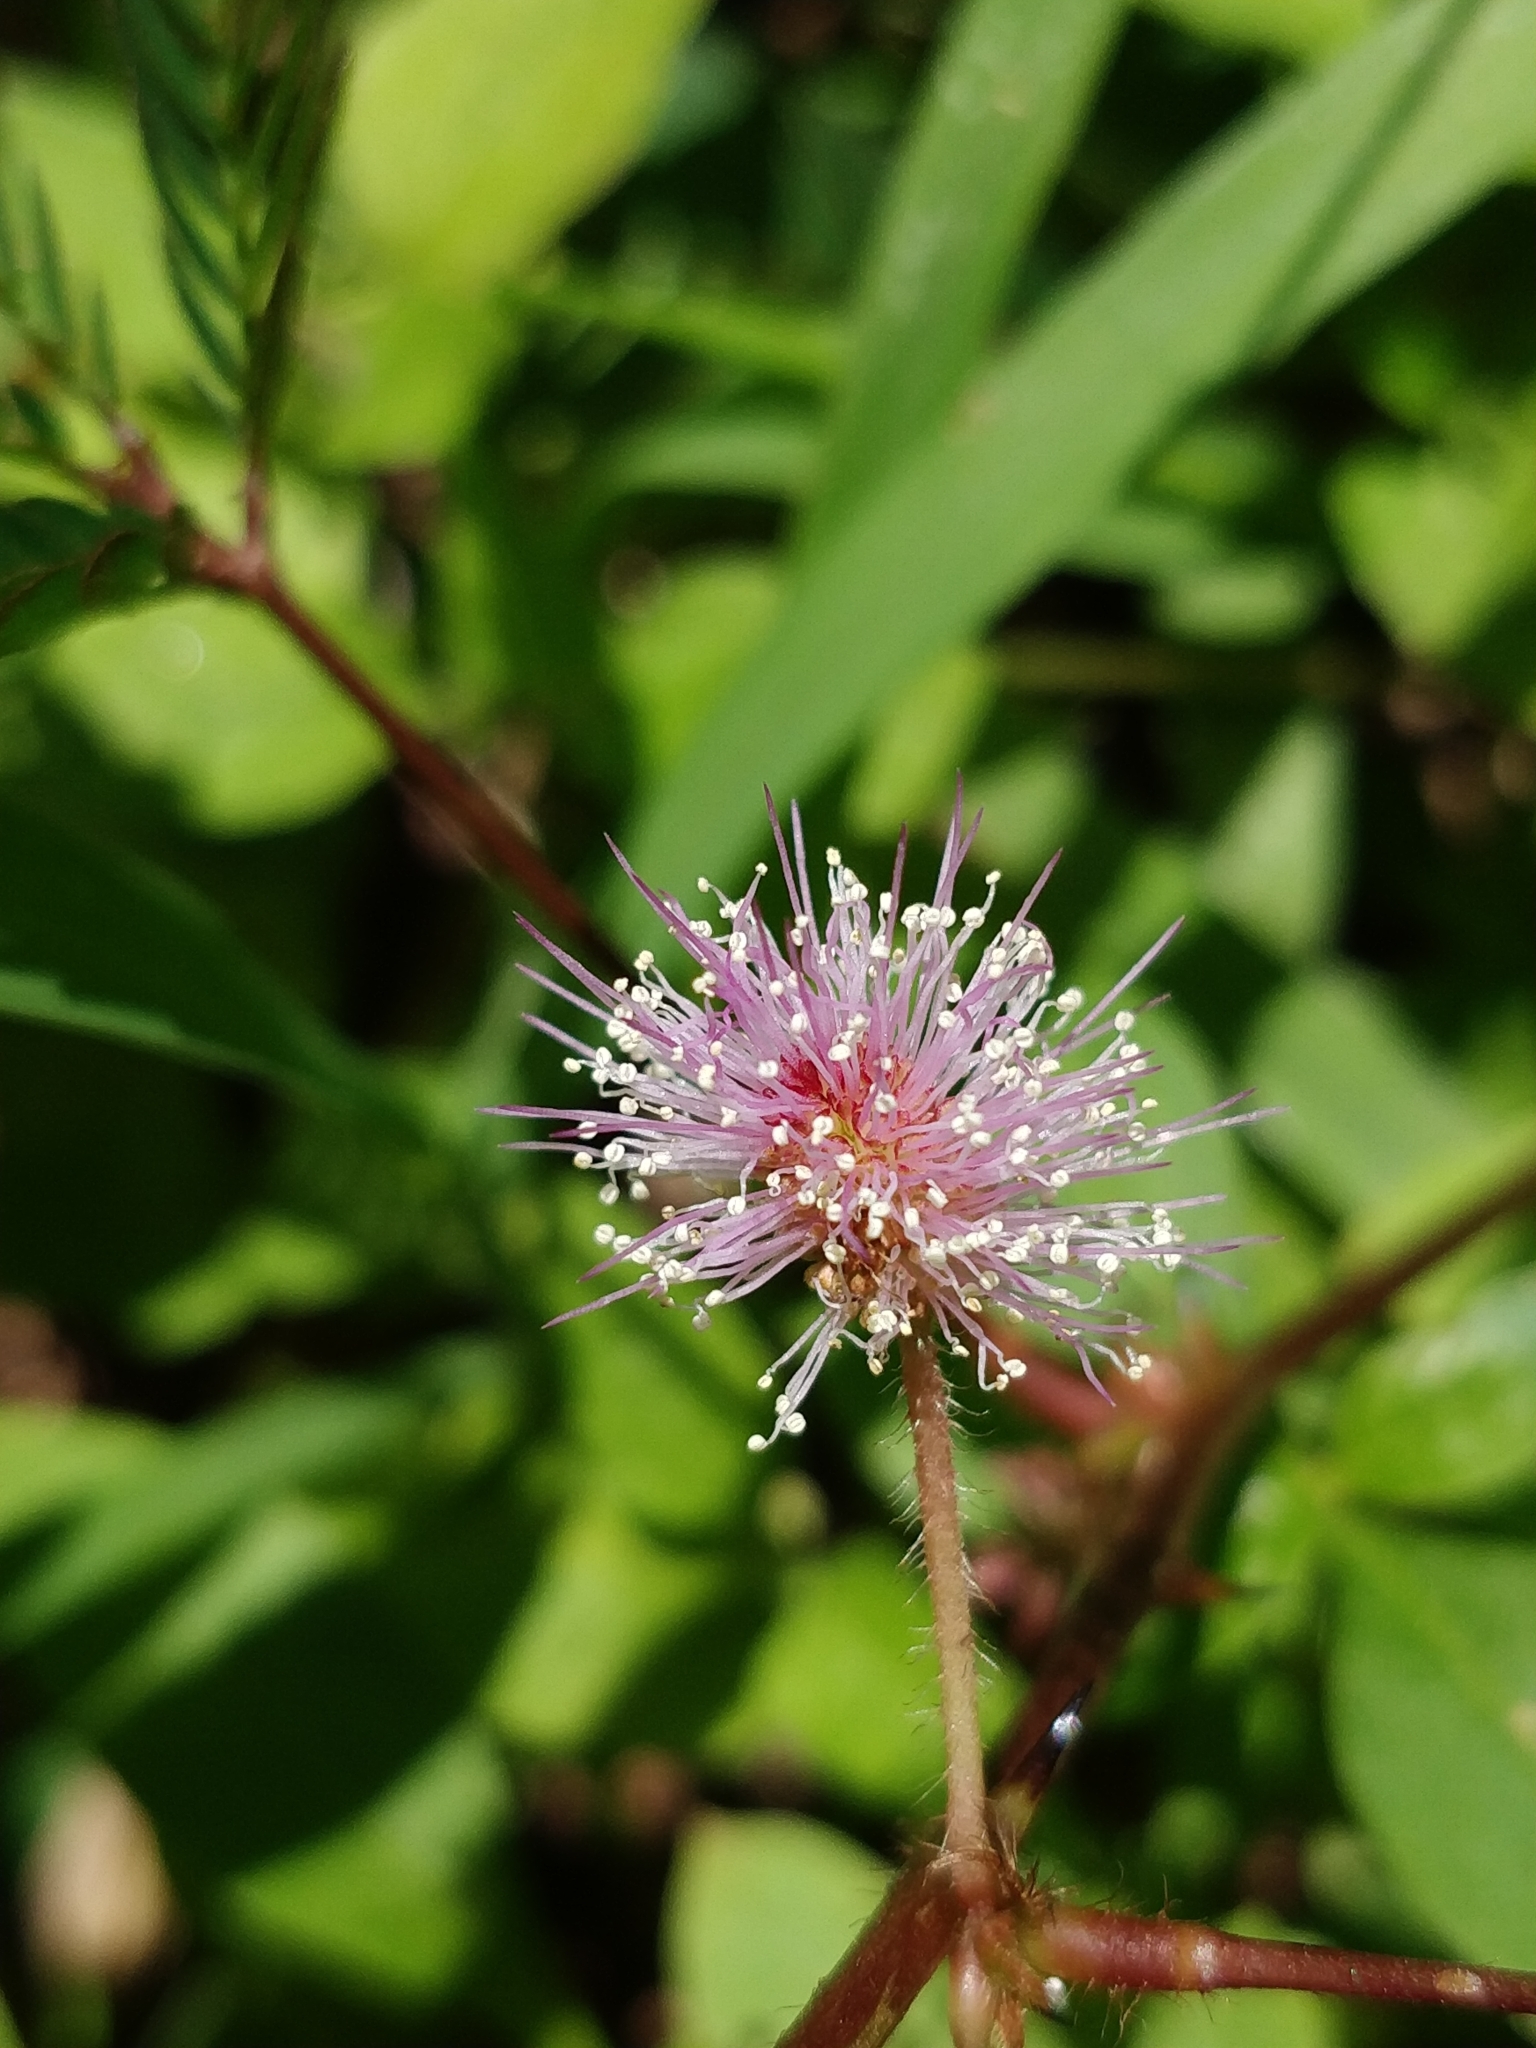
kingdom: Plantae
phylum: Tracheophyta
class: Magnoliopsida
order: Fabales
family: Fabaceae
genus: Mimosa
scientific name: Mimosa pudica
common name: Sensitive plant
